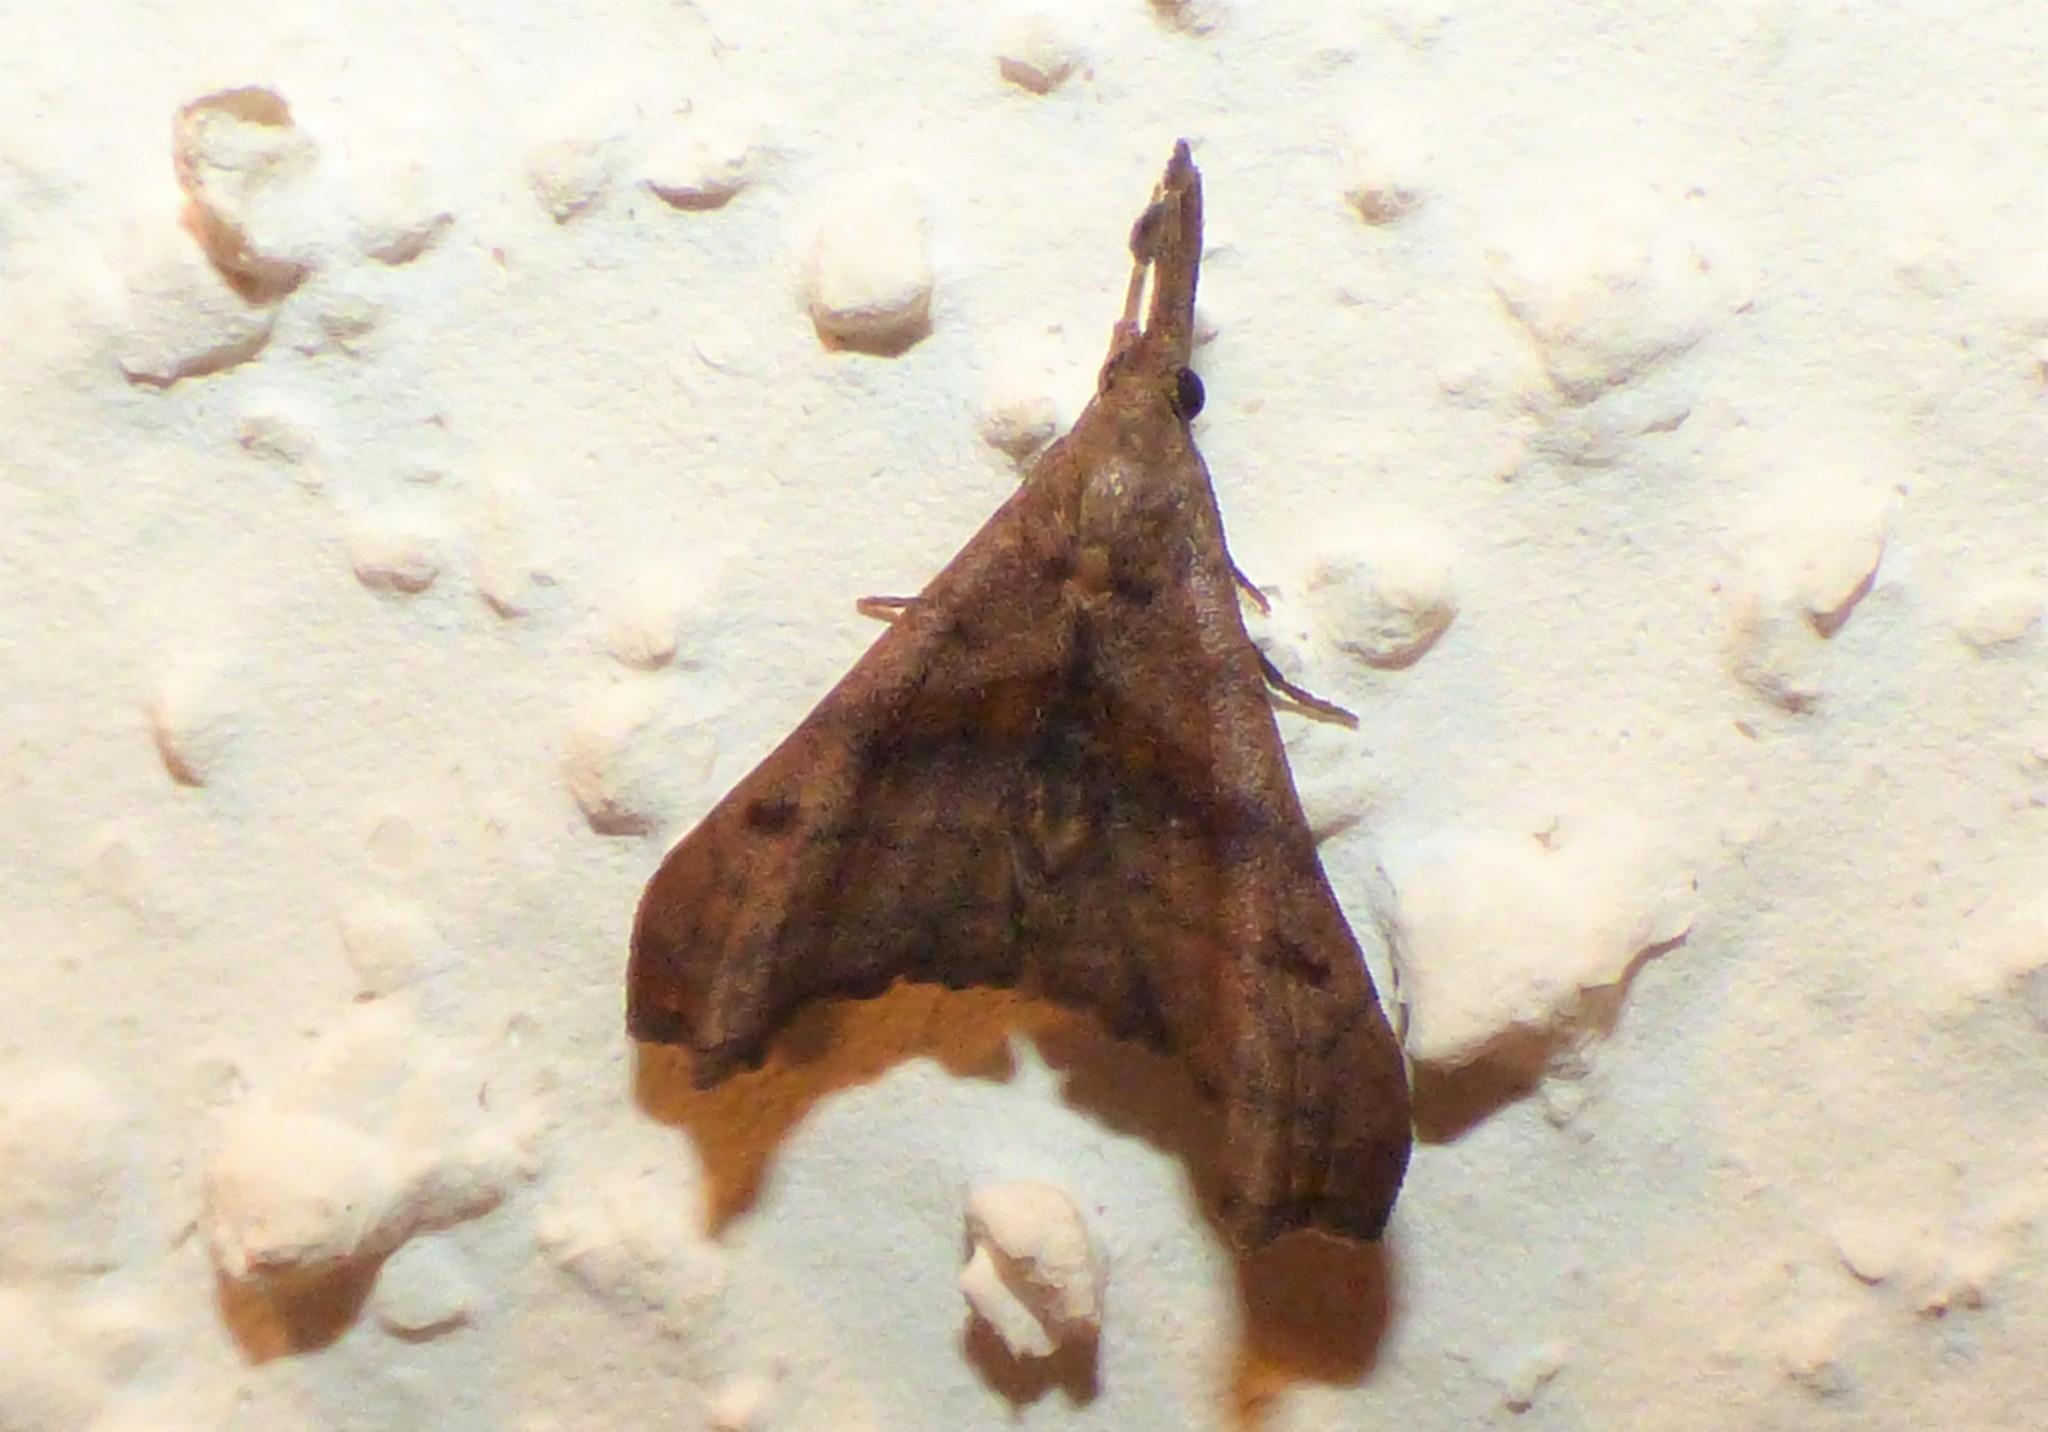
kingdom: Animalia
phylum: Arthropoda
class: Insecta
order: Lepidoptera
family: Erebidae
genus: Palthis
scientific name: Palthis angulalis
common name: Dark-spotted palthis moth
